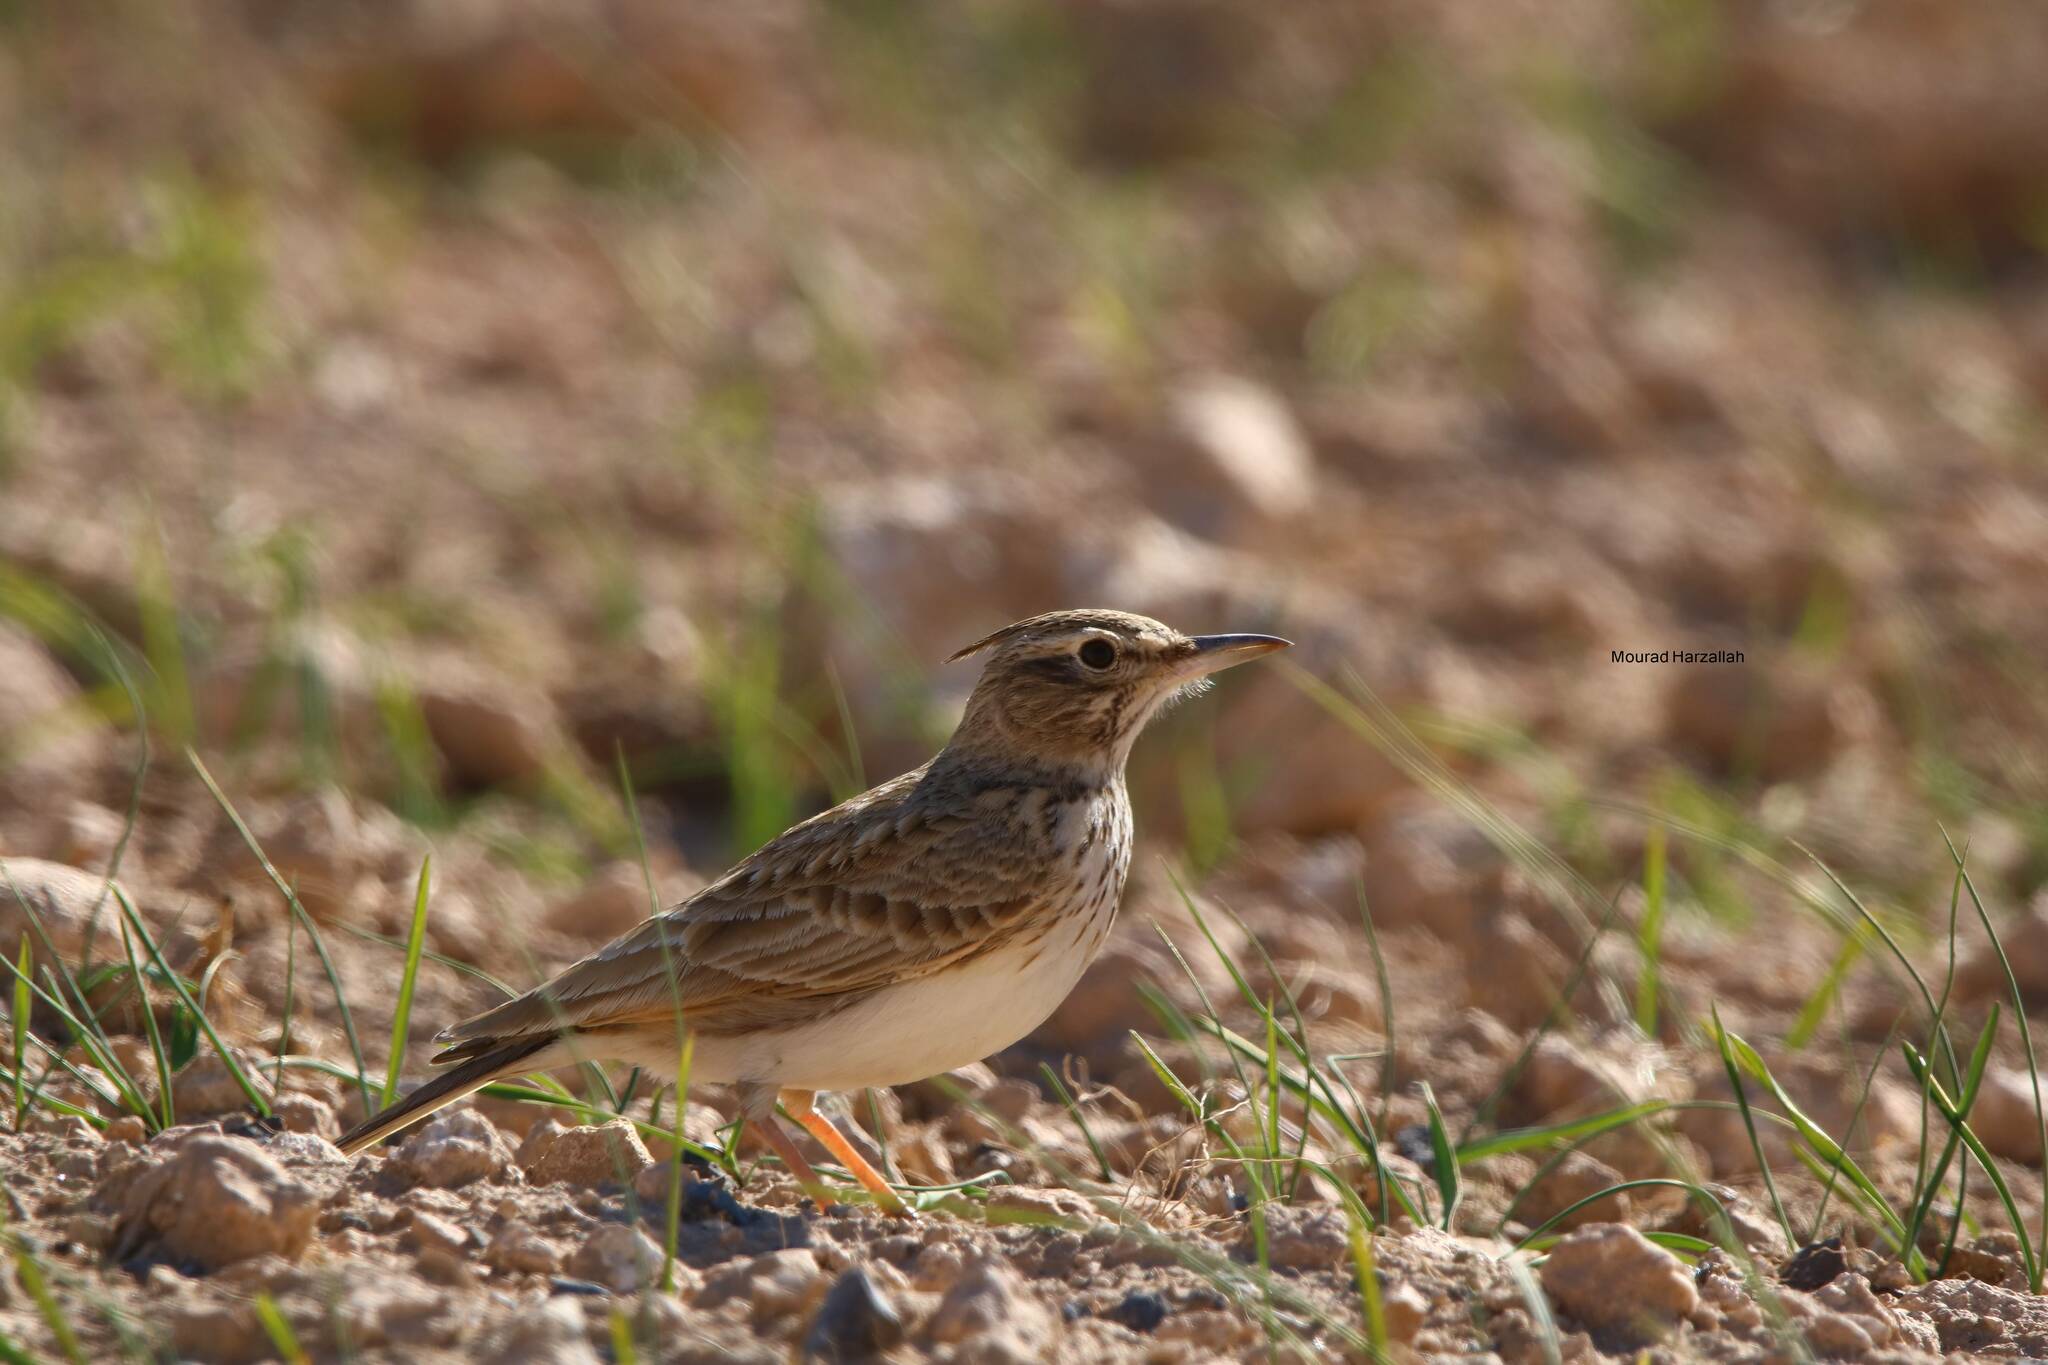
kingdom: Animalia
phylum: Chordata
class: Aves
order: Passeriformes
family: Alaudidae
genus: Galerida
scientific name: Galerida cristata
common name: Crested lark
